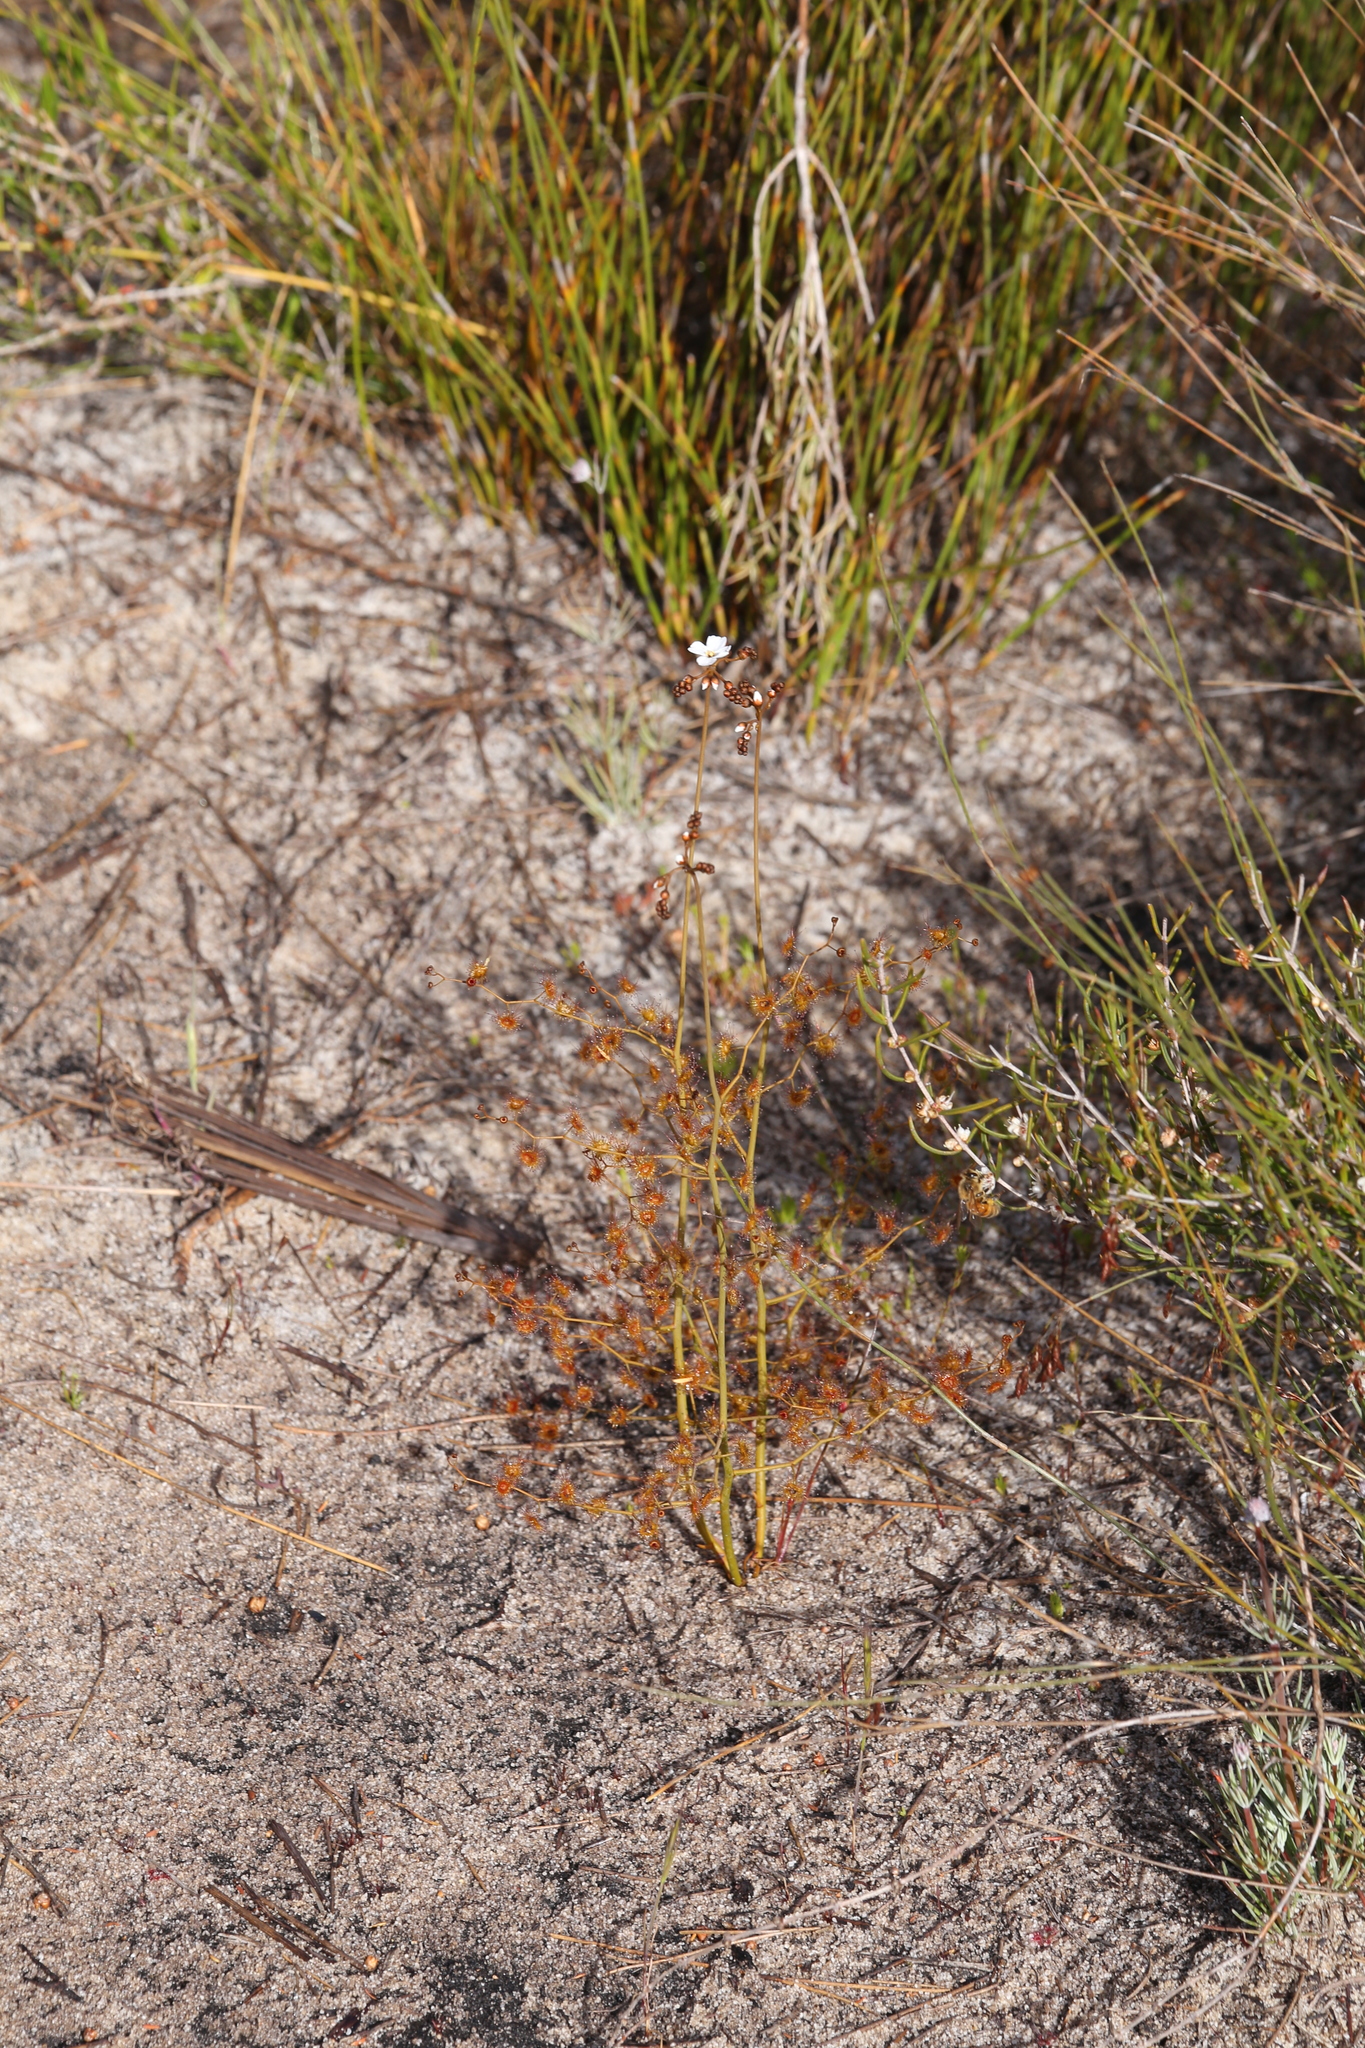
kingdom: Plantae
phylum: Tracheophyta
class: Magnoliopsida
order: Caryophyllales
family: Droseraceae
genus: Drosera
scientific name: Drosera gigantea
